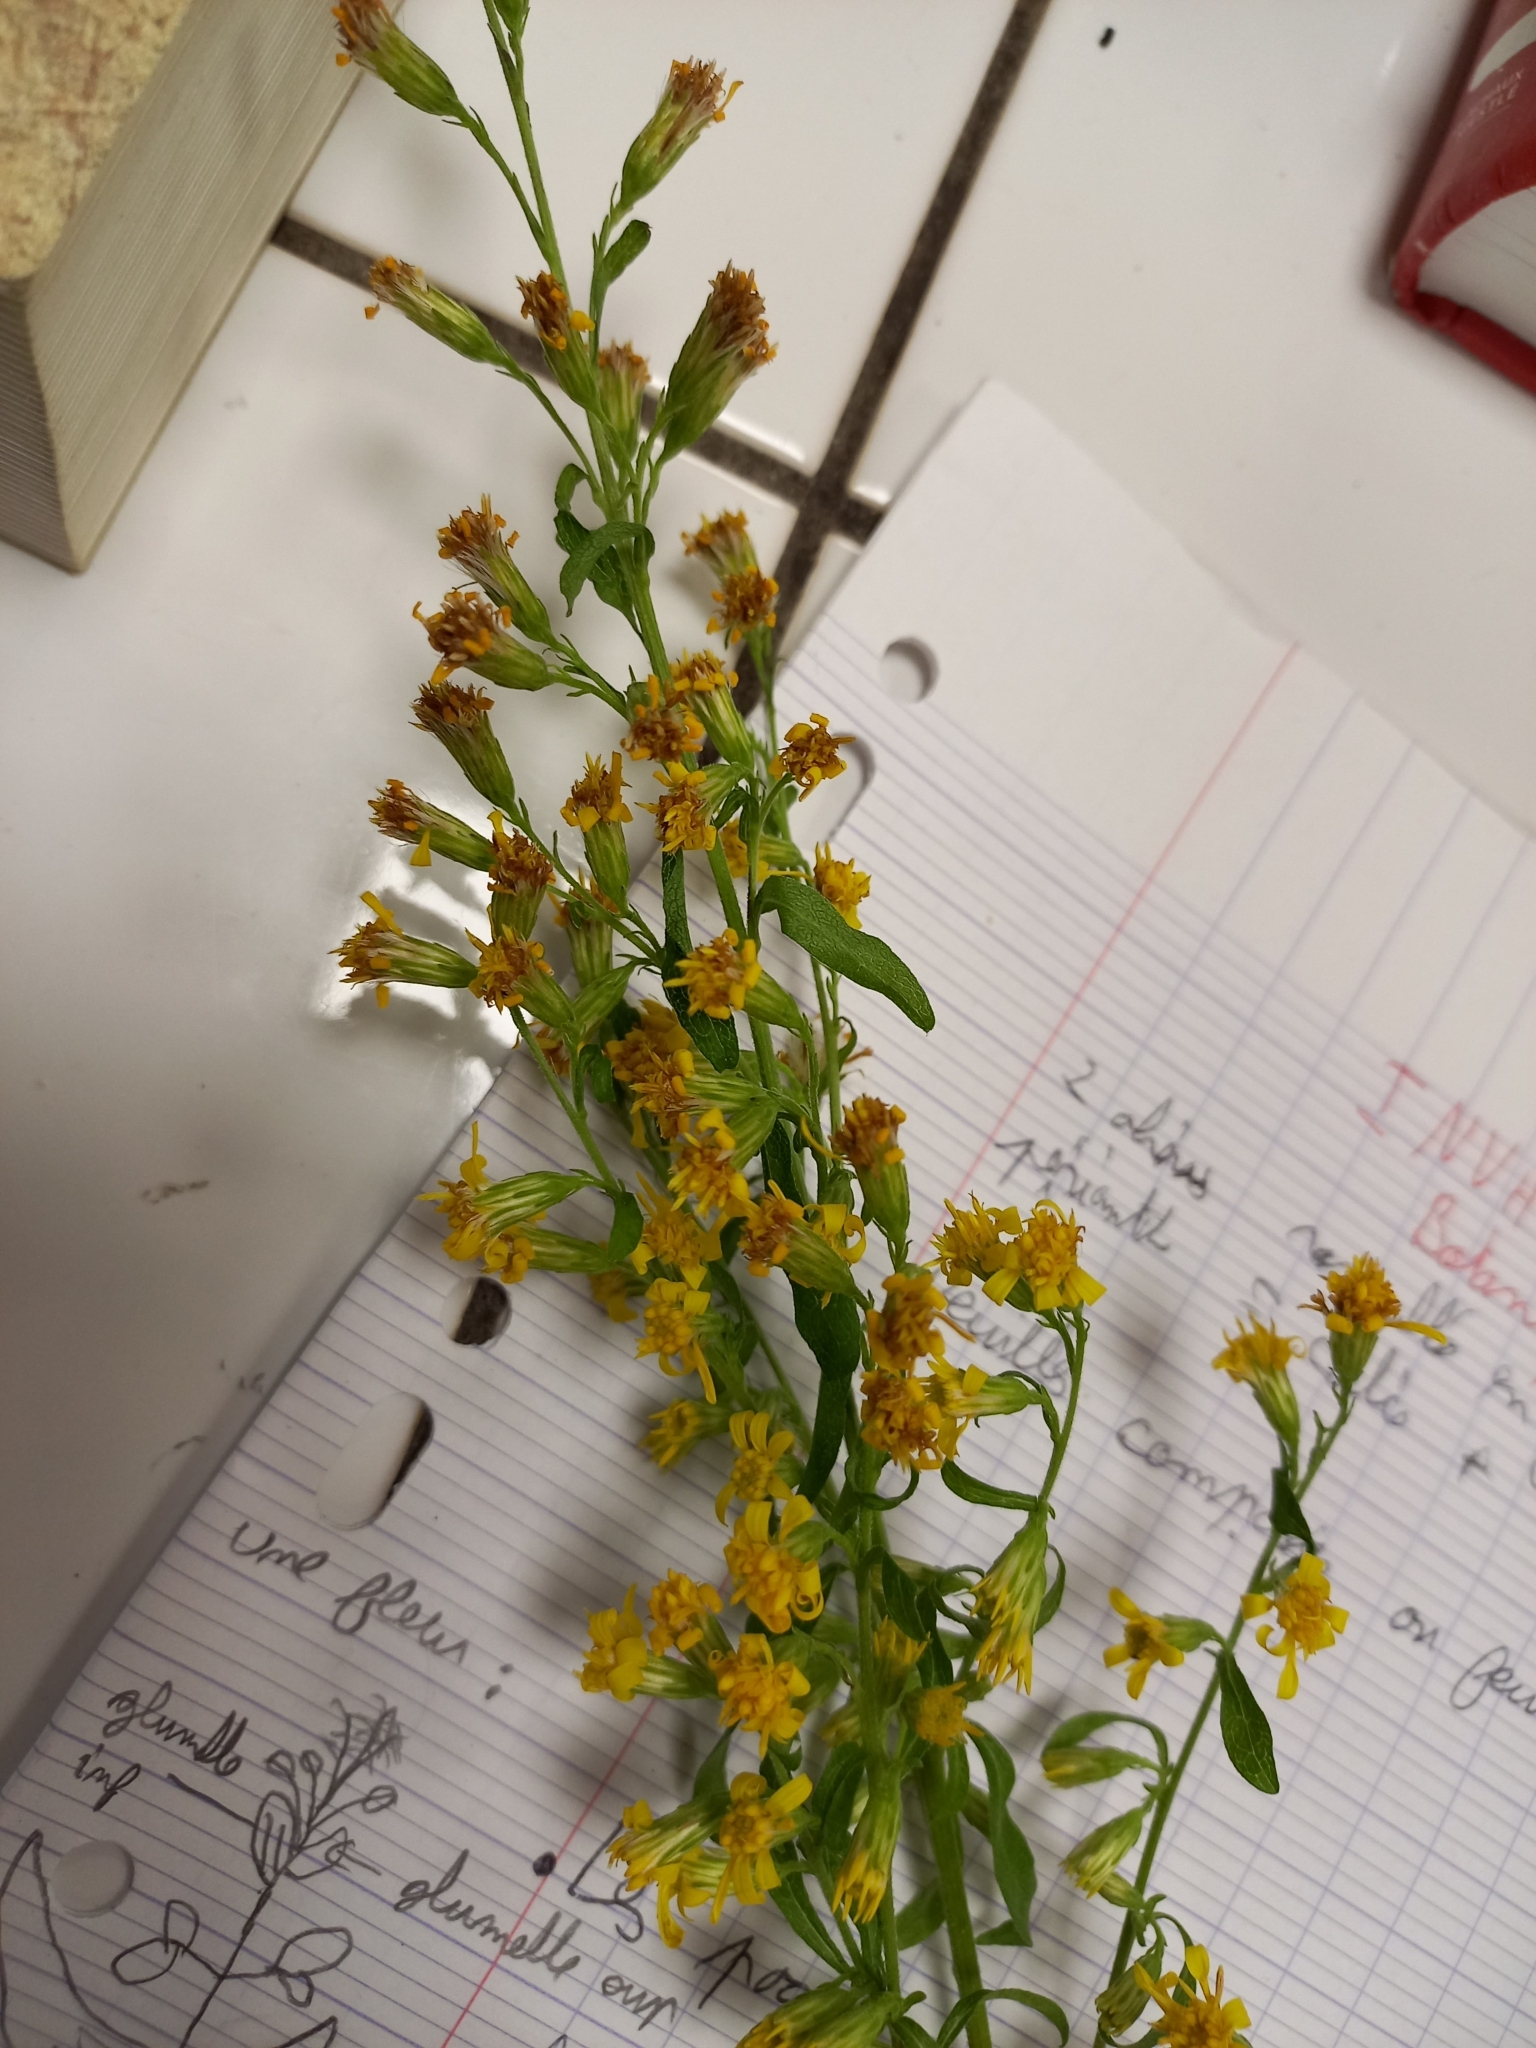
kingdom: Plantae
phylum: Tracheophyta
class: Magnoliopsida
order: Asterales
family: Asteraceae
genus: Solidago
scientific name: Solidago virgaurea
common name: Goldenrod
